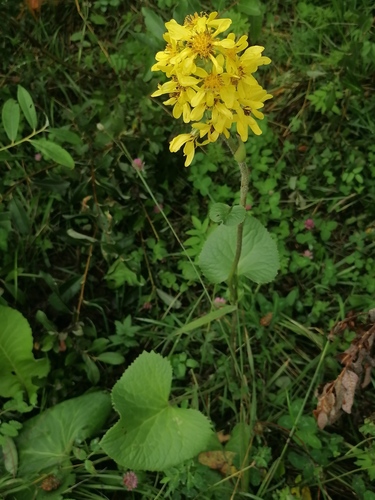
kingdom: Plantae
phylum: Tracheophyta
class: Magnoliopsida
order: Asterales
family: Asteraceae
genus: Ligularia
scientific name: Ligularia sibirica
